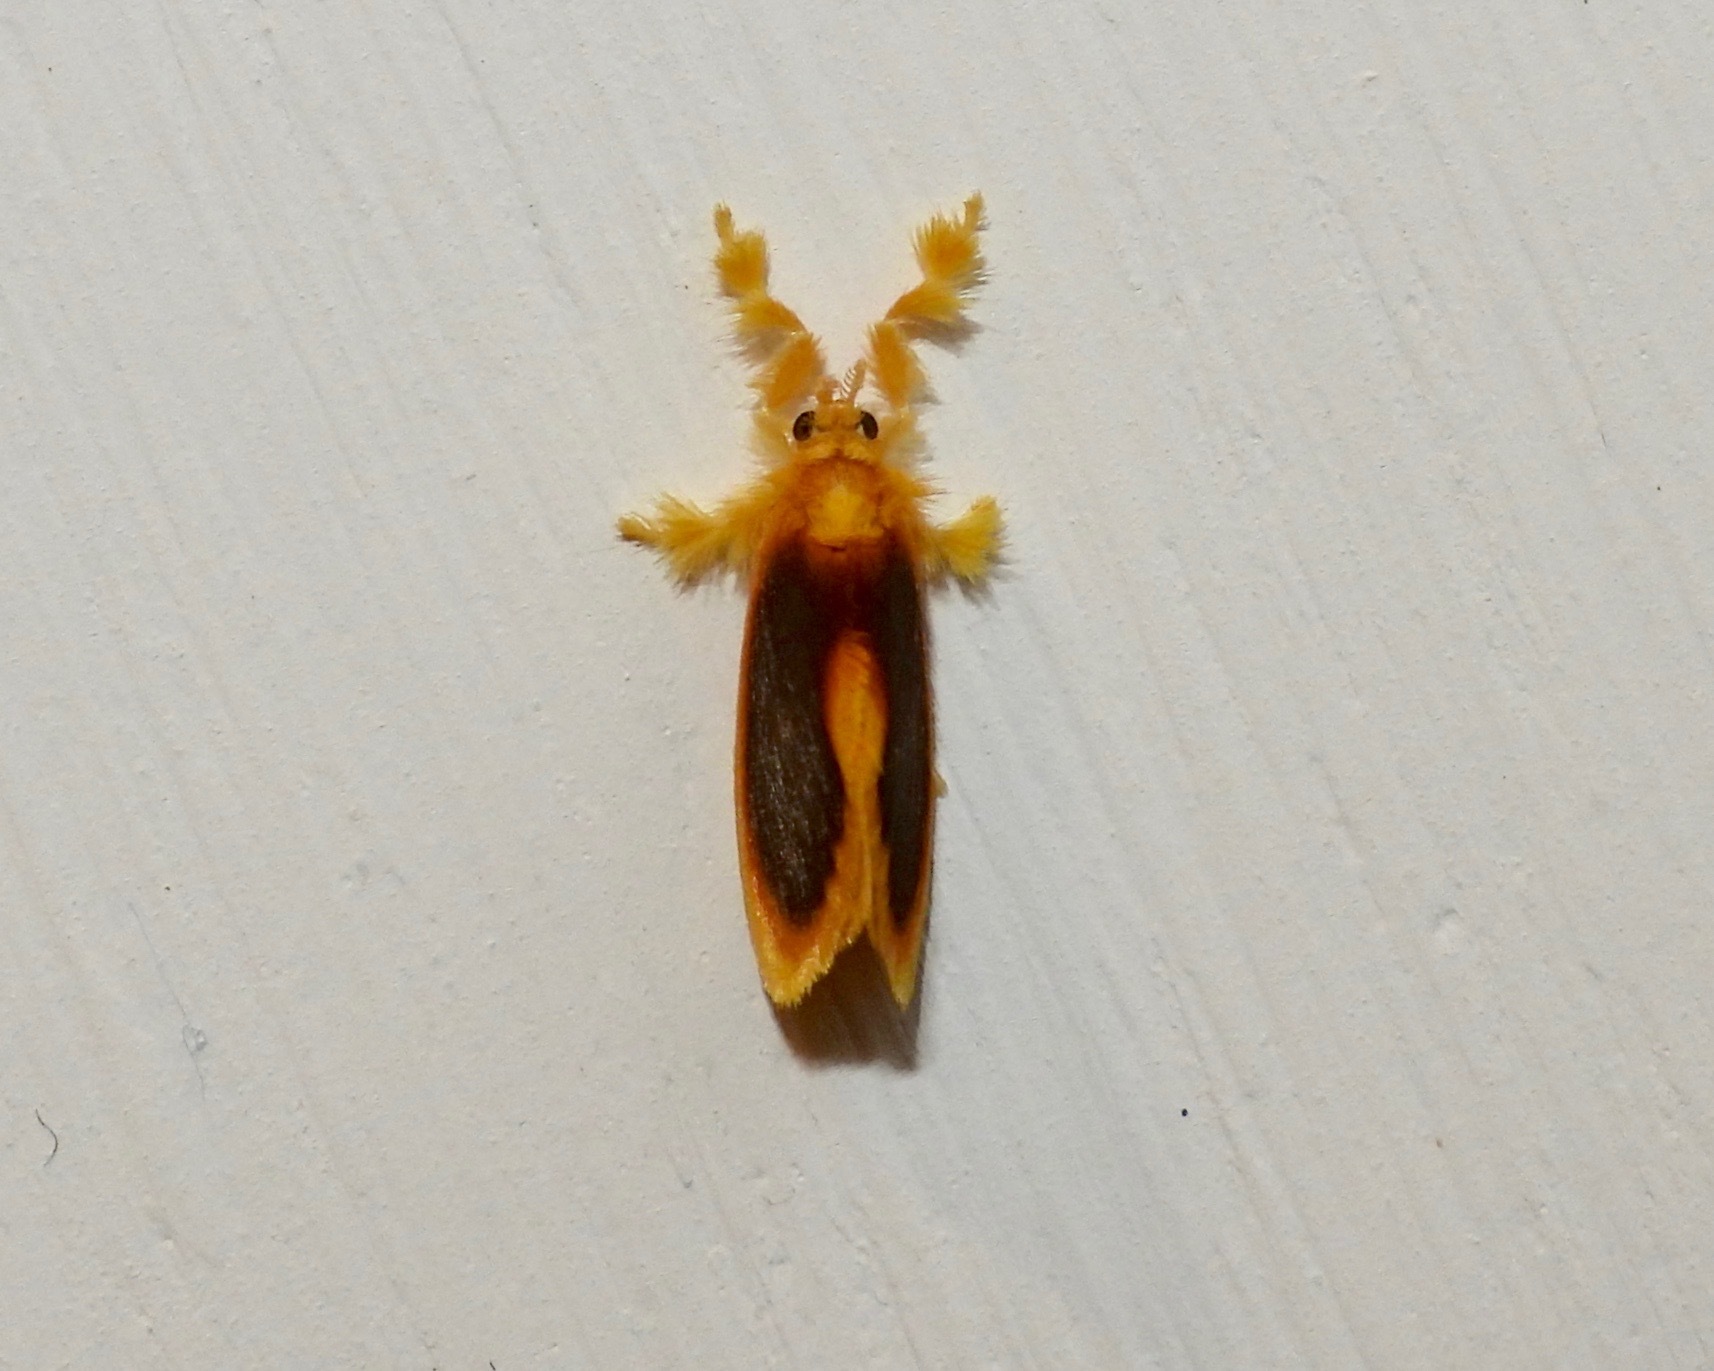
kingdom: Animalia
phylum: Arthropoda
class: Insecta
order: Lepidoptera
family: Dalceridae
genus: Dalcerides
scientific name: Dalcerides mesoa
